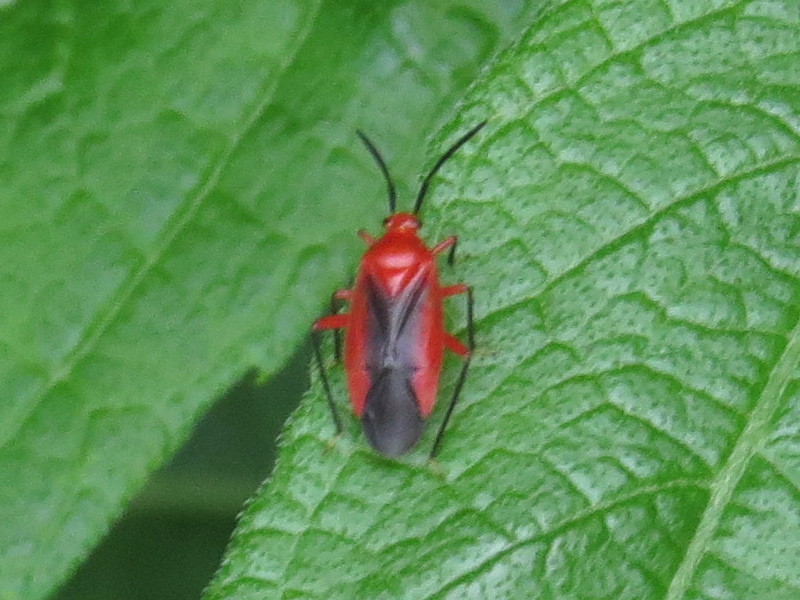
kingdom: Animalia
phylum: Arthropoda
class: Insecta
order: Hemiptera
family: Miridae
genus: Coccobaphes
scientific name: Coccobaphes frontifer
